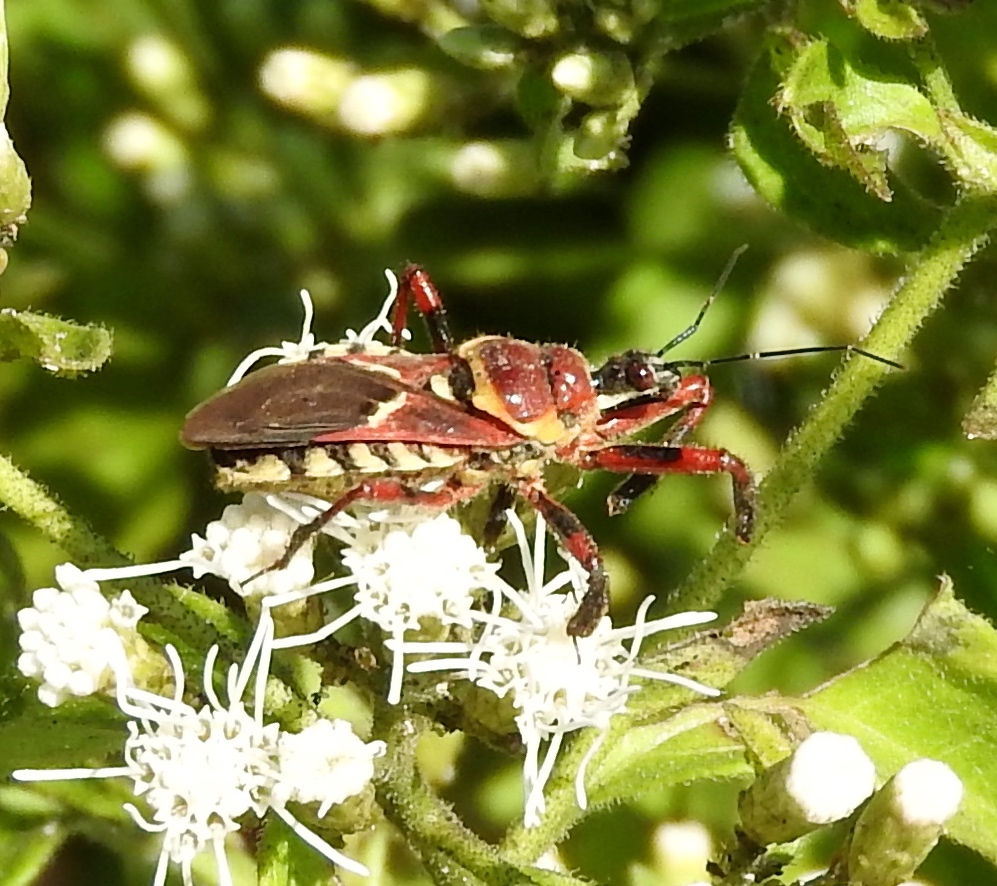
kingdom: Animalia
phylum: Arthropoda
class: Insecta
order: Hemiptera
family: Reduviidae
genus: Apiomerus
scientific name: Apiomerus
